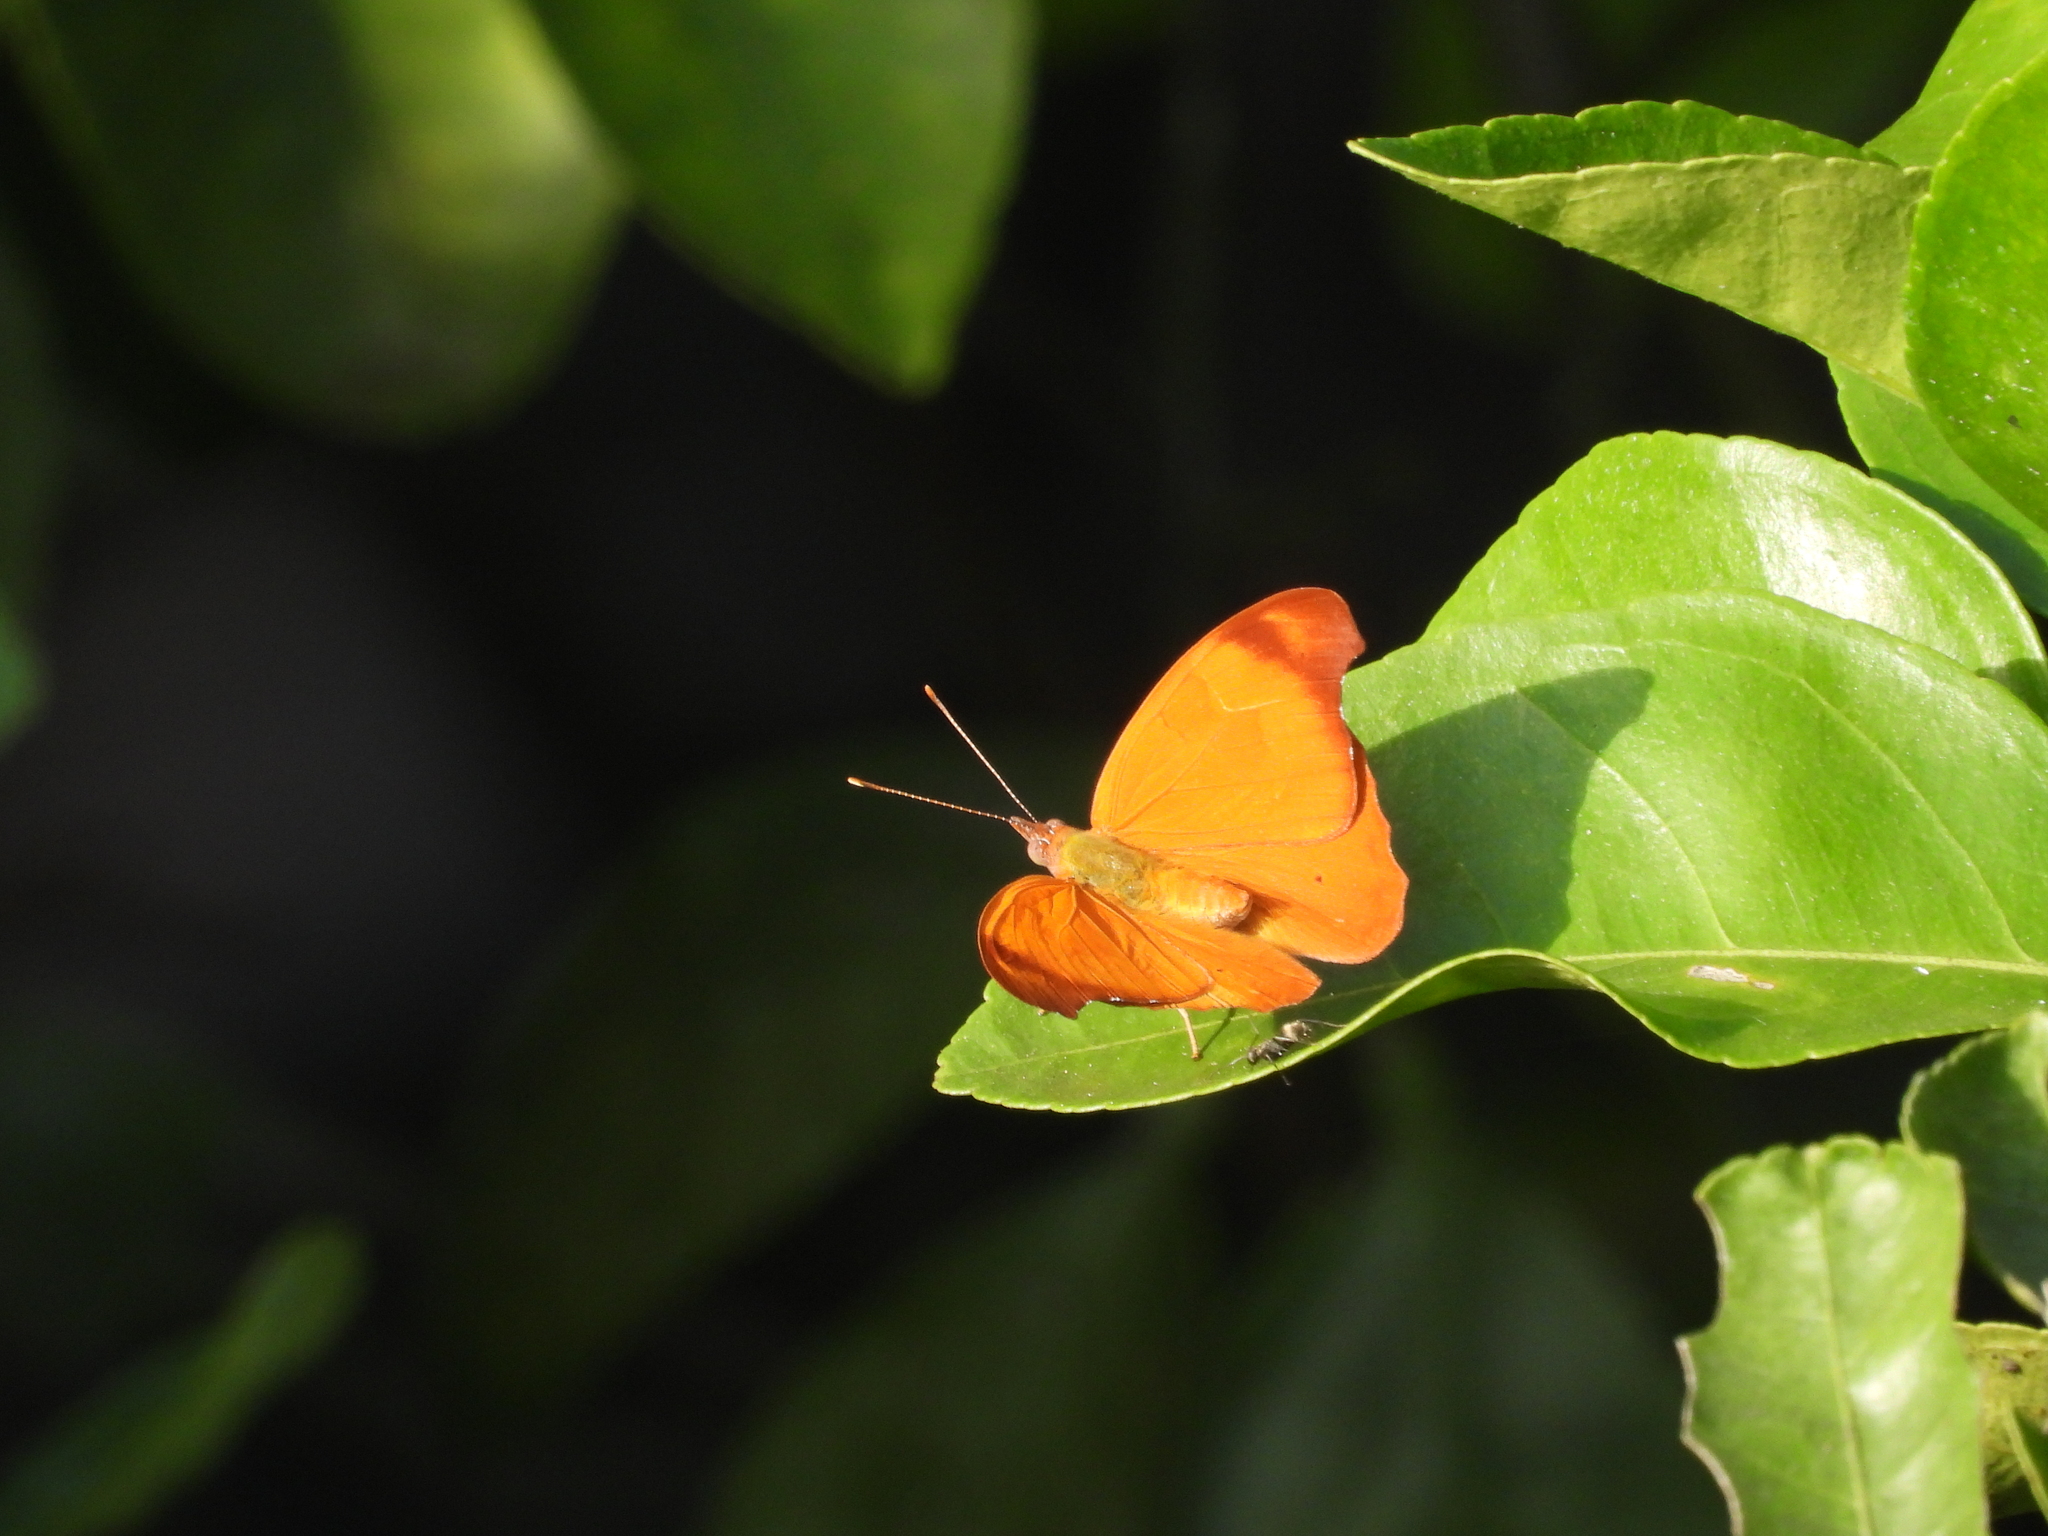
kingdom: Animalia
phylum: Arthropoda
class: Insecta
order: Lepidoptera
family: Nymphalidae
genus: Temenis
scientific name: Temenis laothoe
